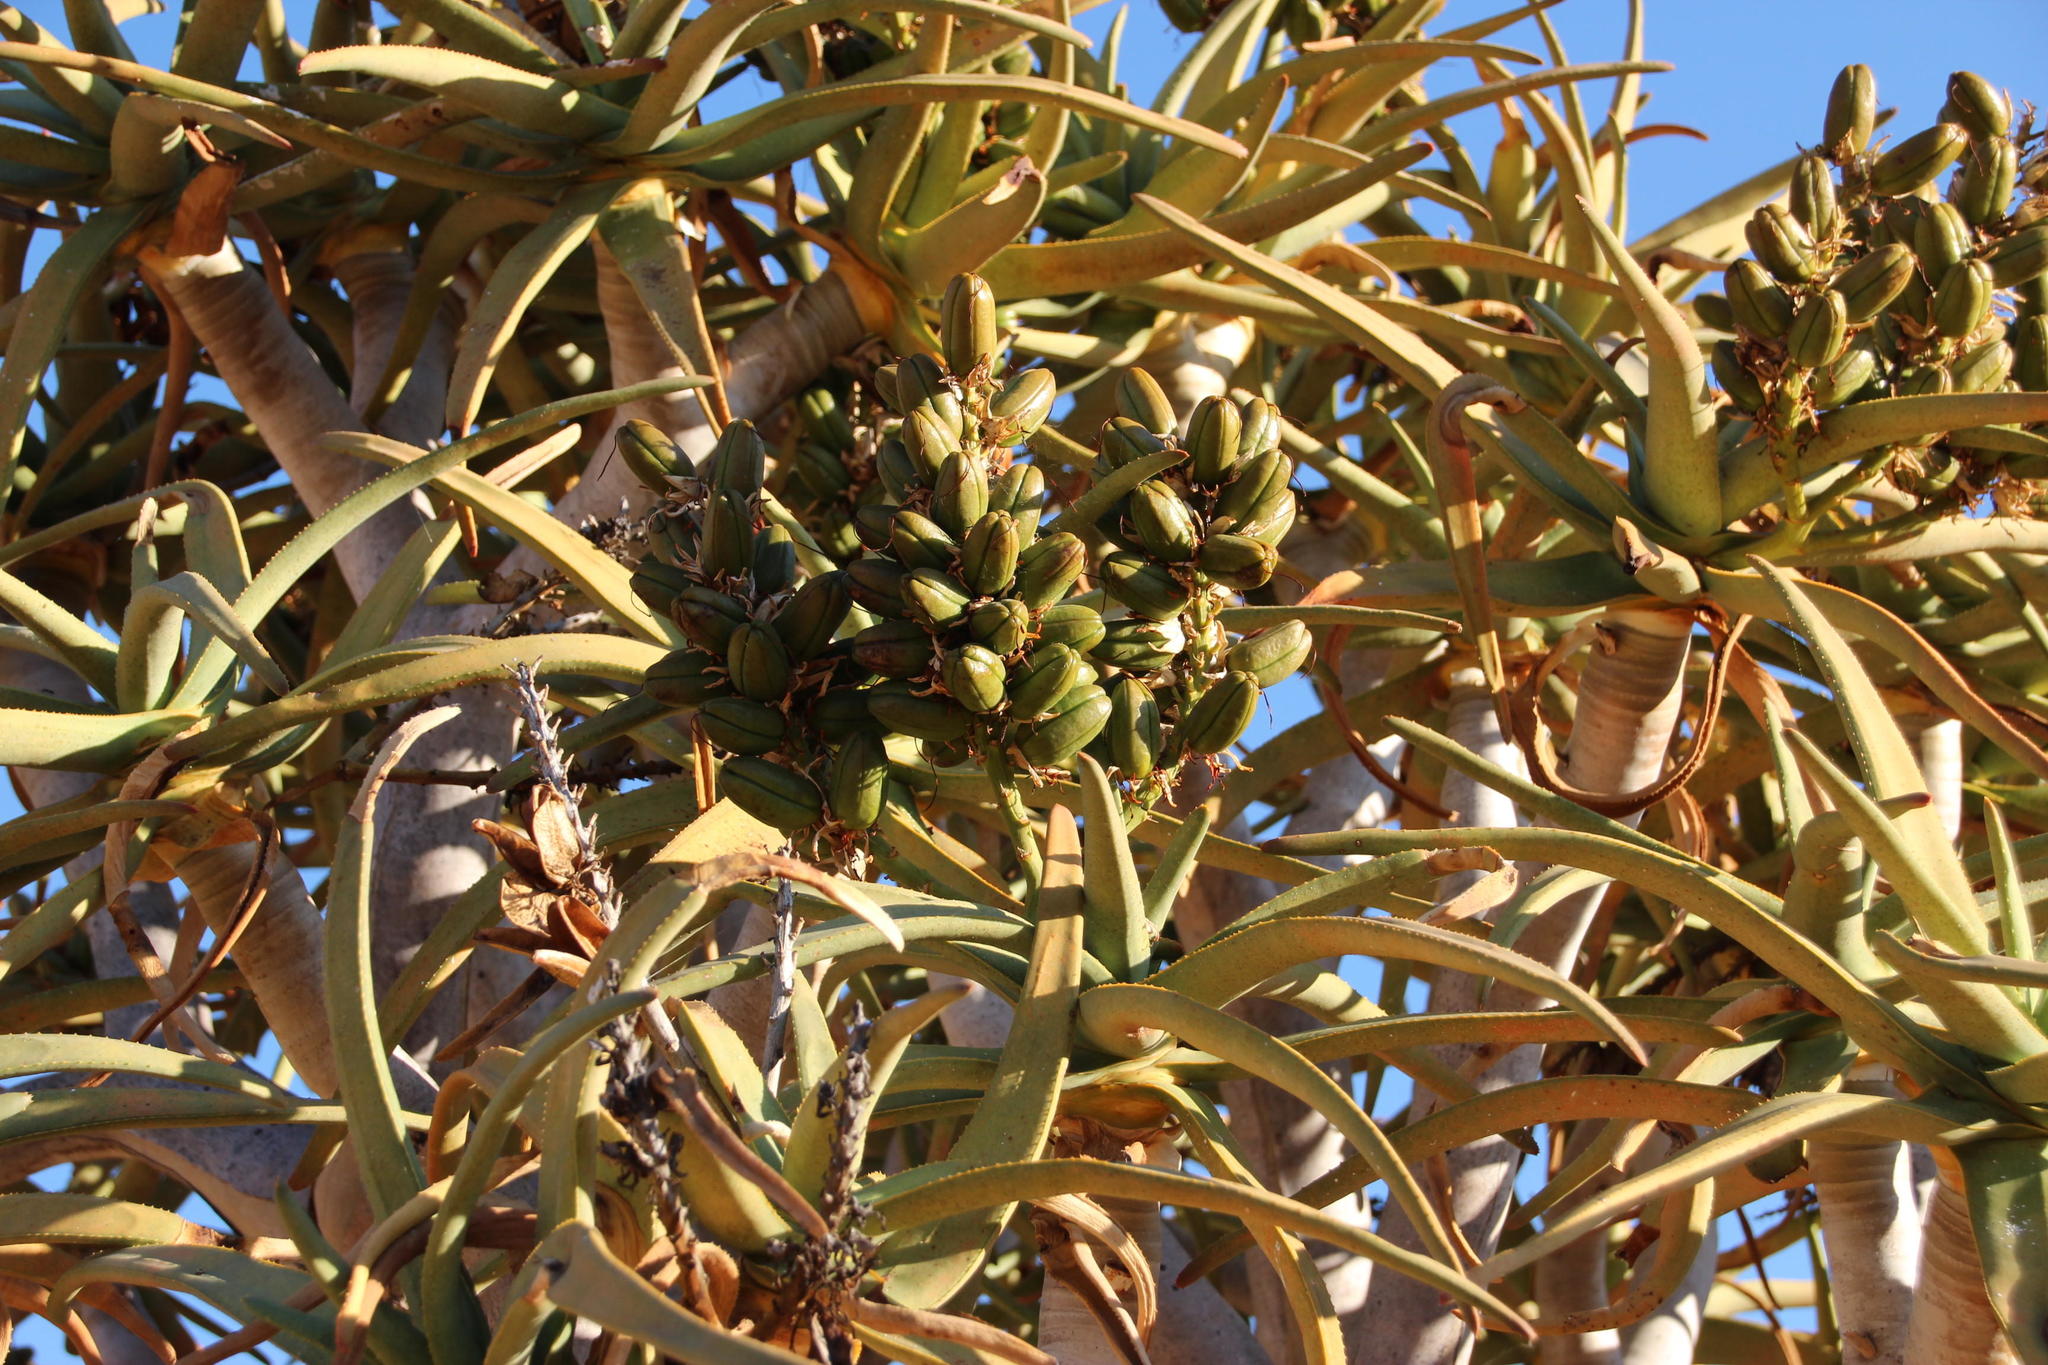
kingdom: Plantae
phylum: Tracheophyta
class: Liliopsida
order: Asparagales
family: Asphodelaceae
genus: Aloidendron
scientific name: Aloidendron dichotomum
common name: Quiver tree
